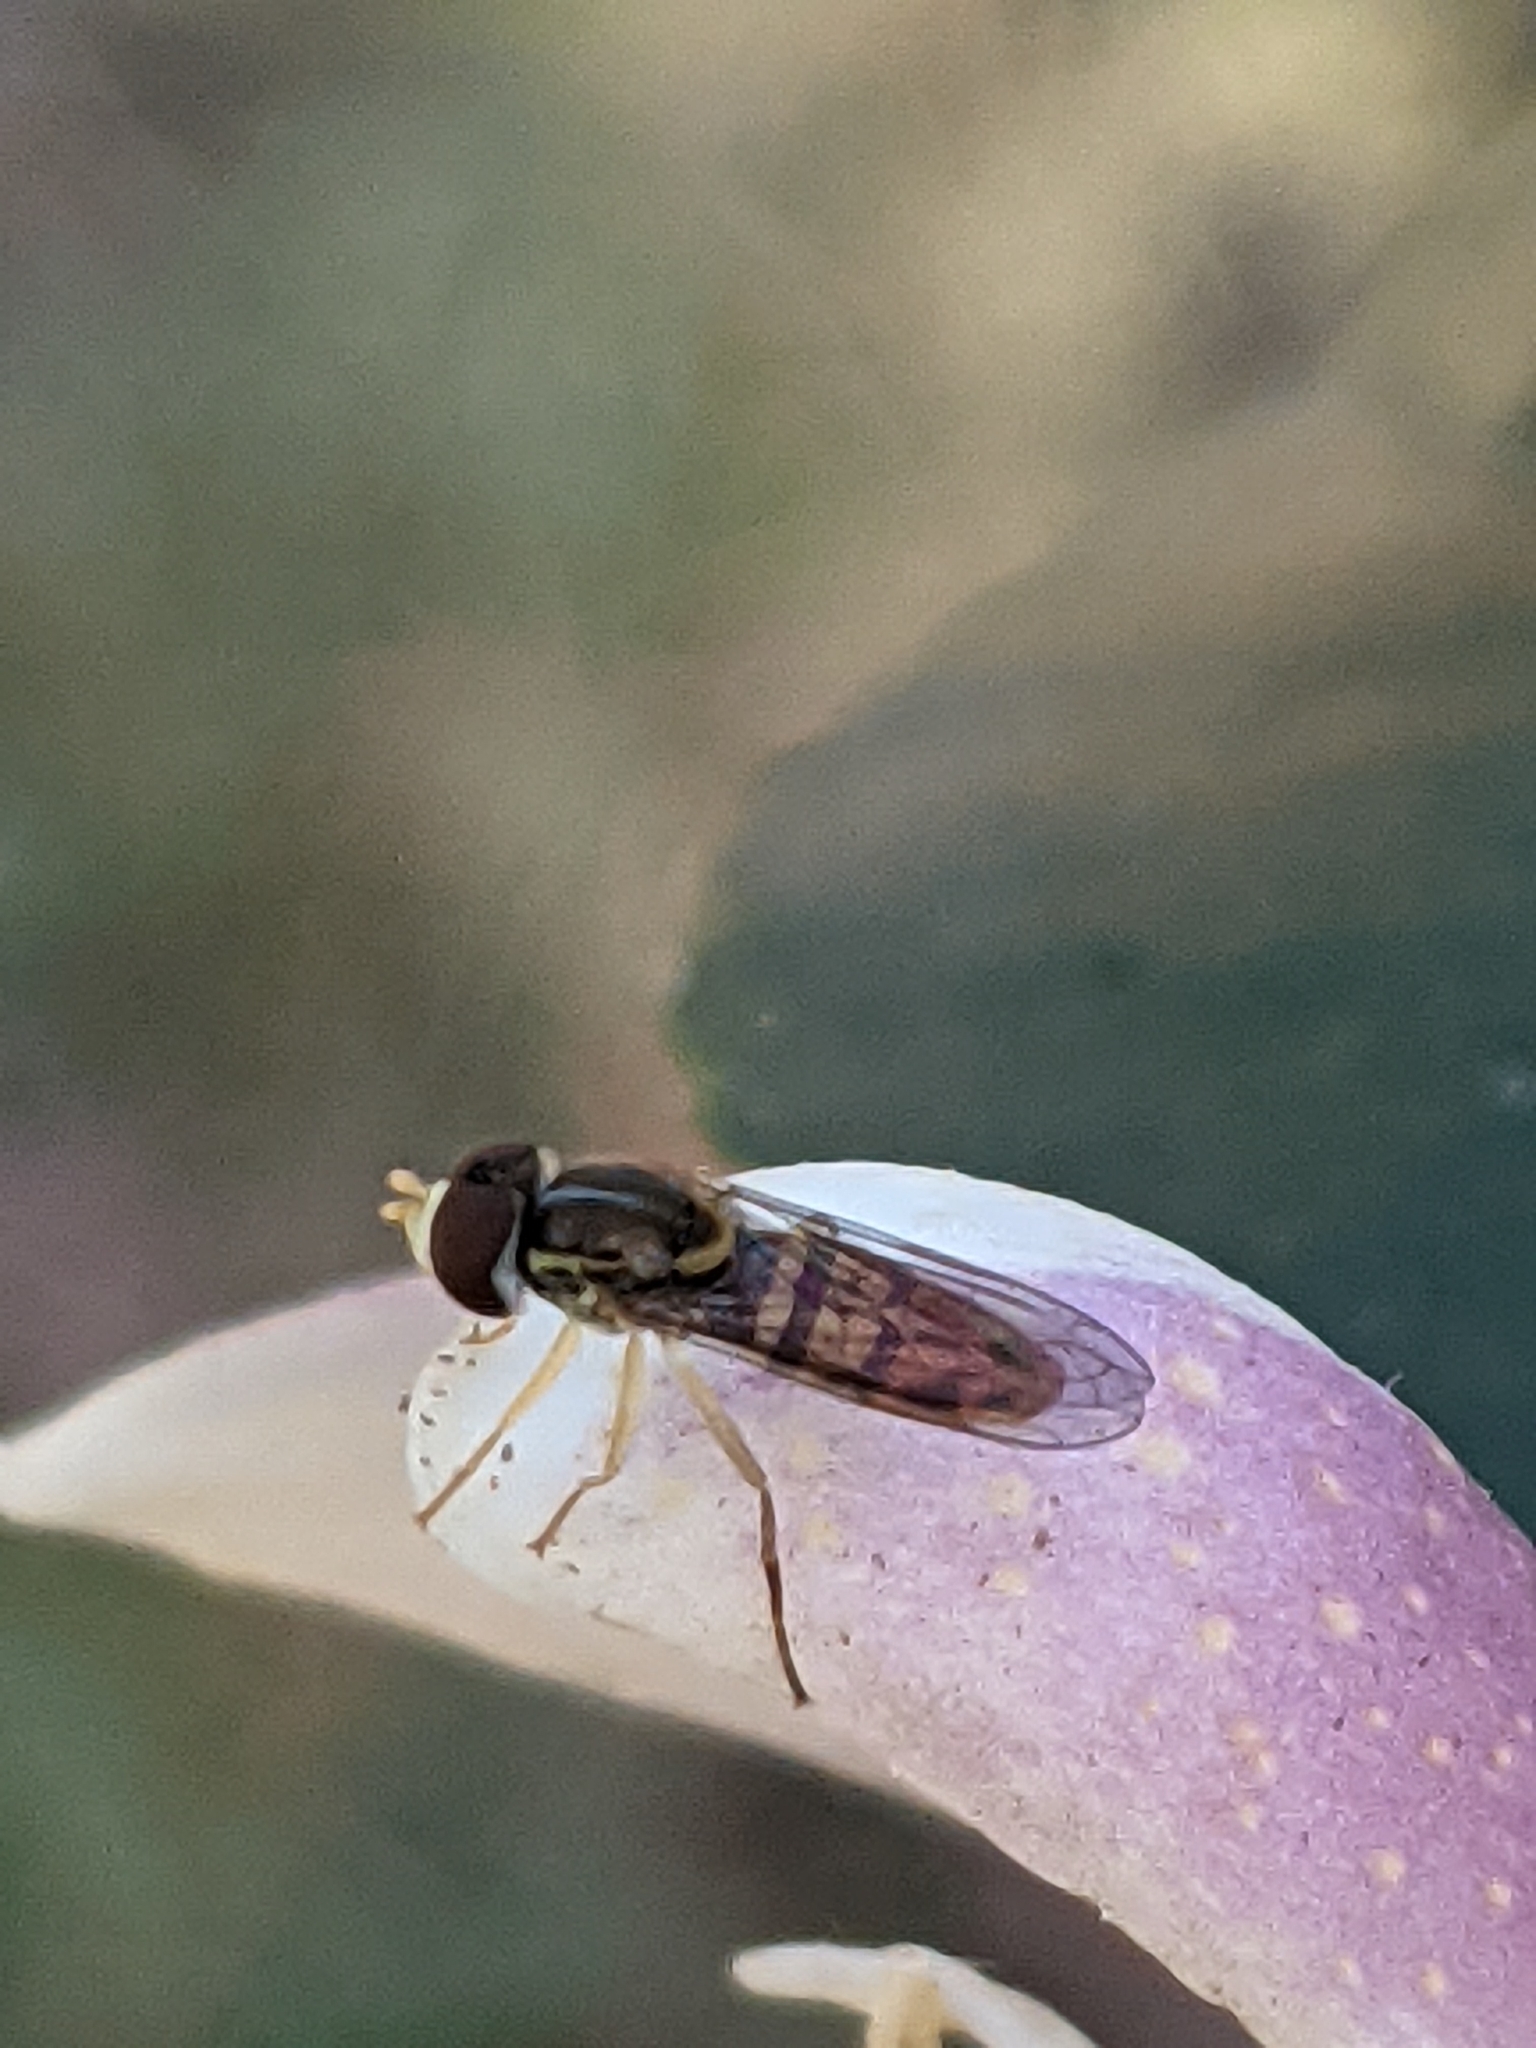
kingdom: Animalia
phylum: Arthropoda
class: Insecta
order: Diptera
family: Syrphidae
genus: Toxomerus
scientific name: Toxomerus marginatus
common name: Syrphid fly
